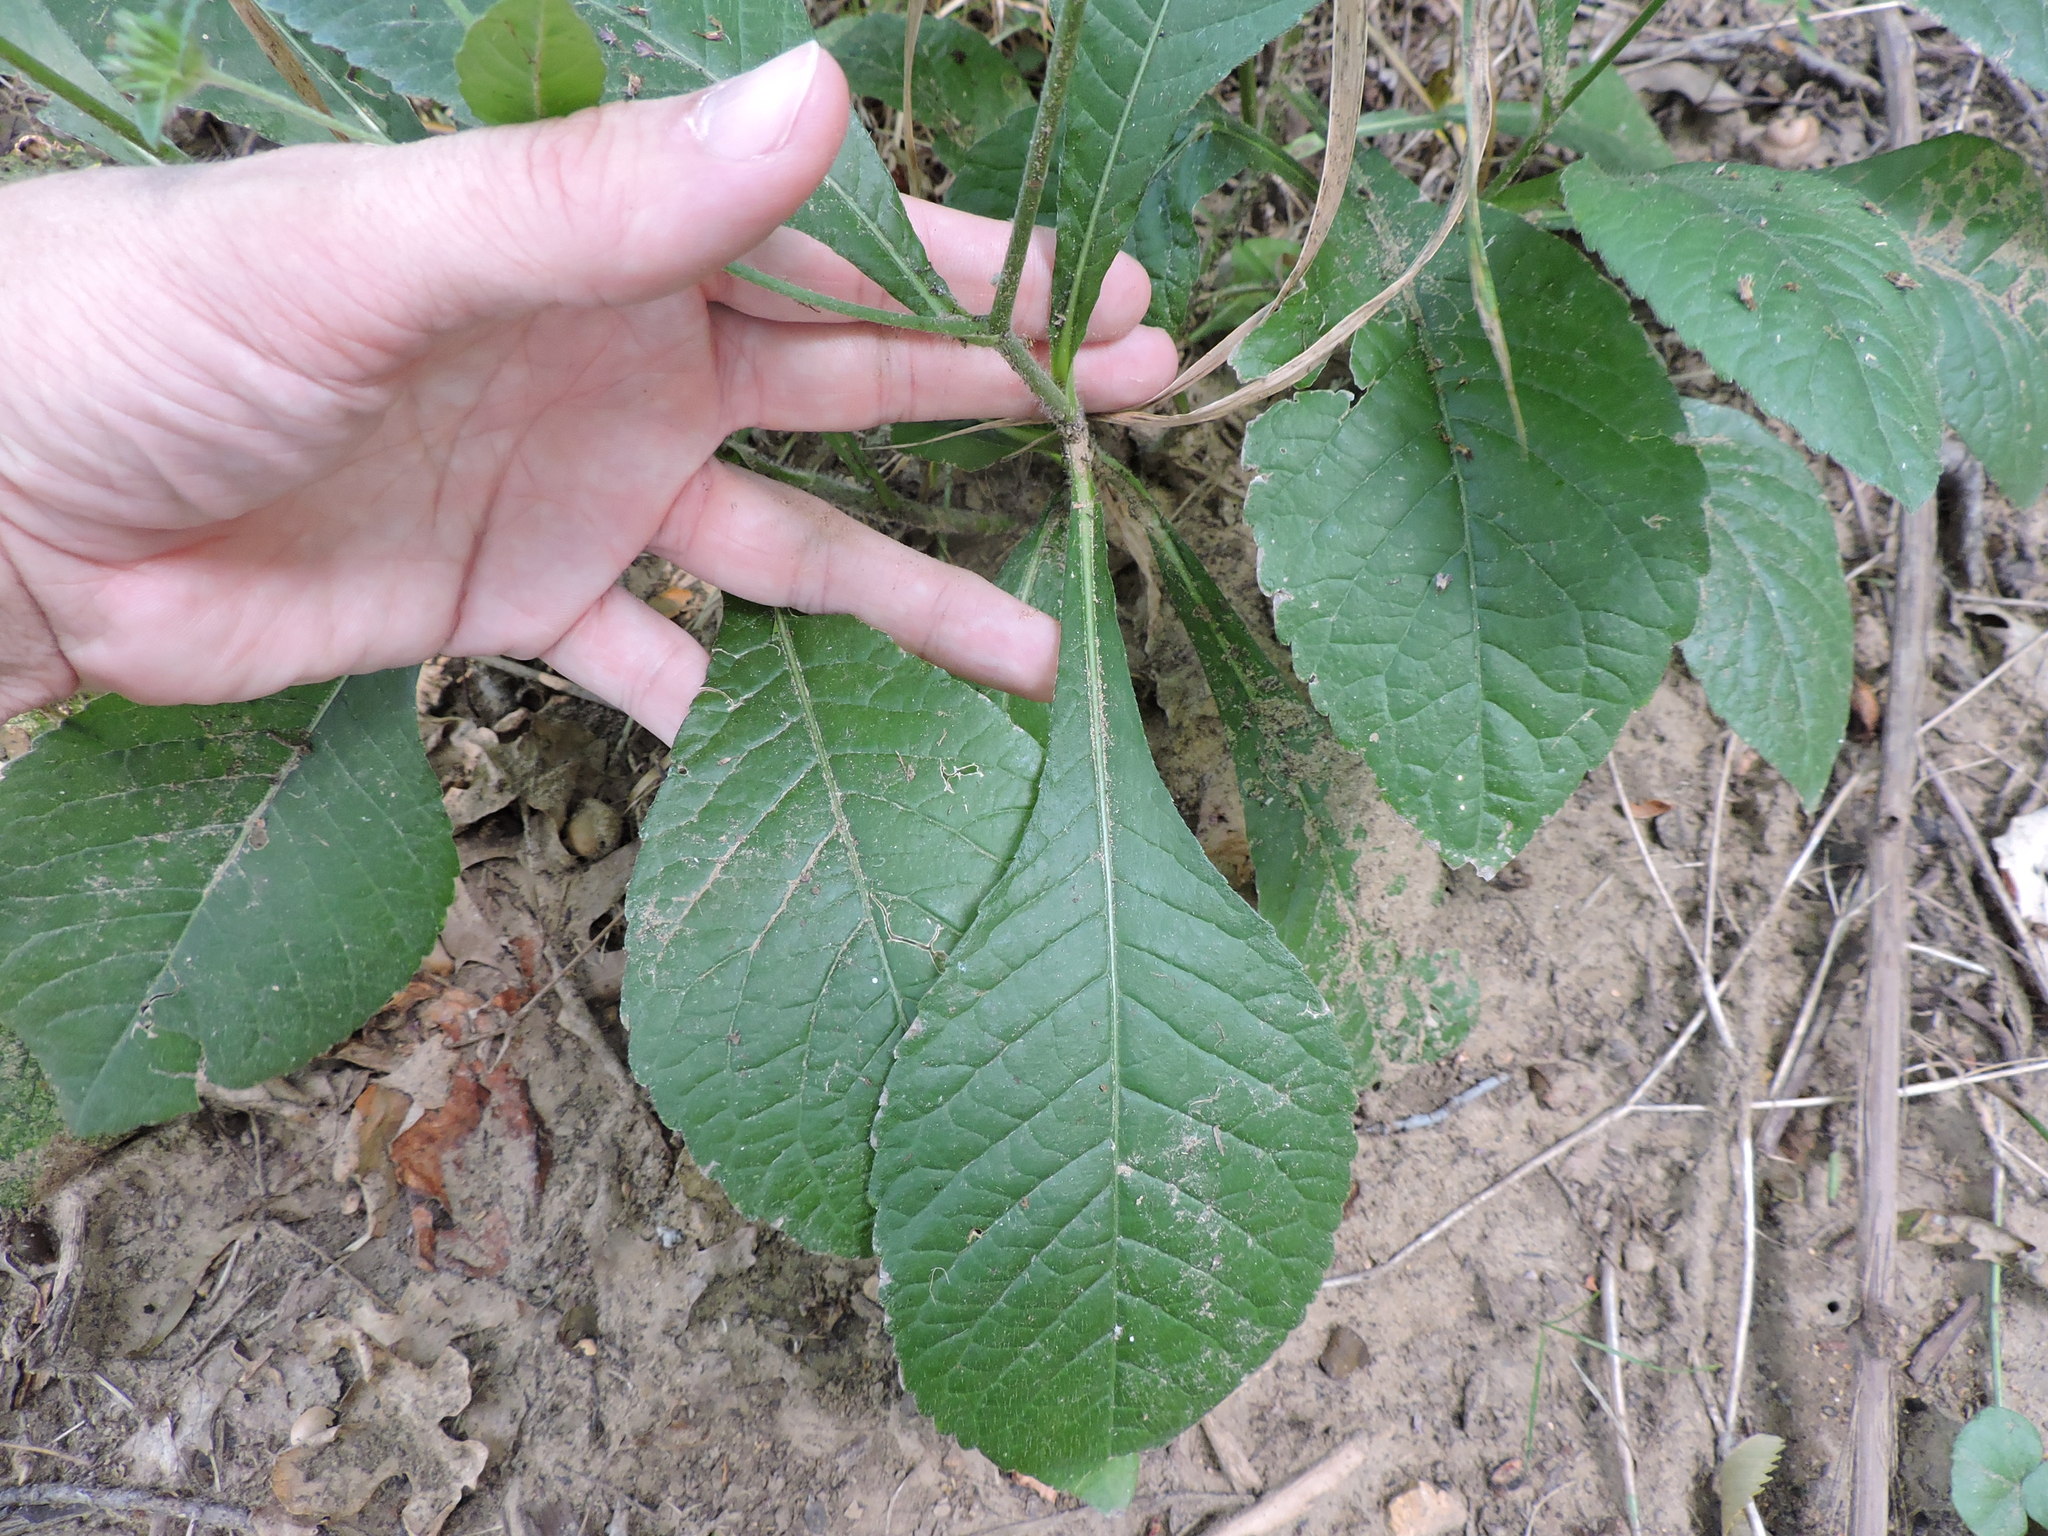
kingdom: Plantae
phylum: Tracheophyta
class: Magnoliopsida
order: Asterales
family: Asteraceae
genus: Elephantopus
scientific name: Elephantopus carolinianus
